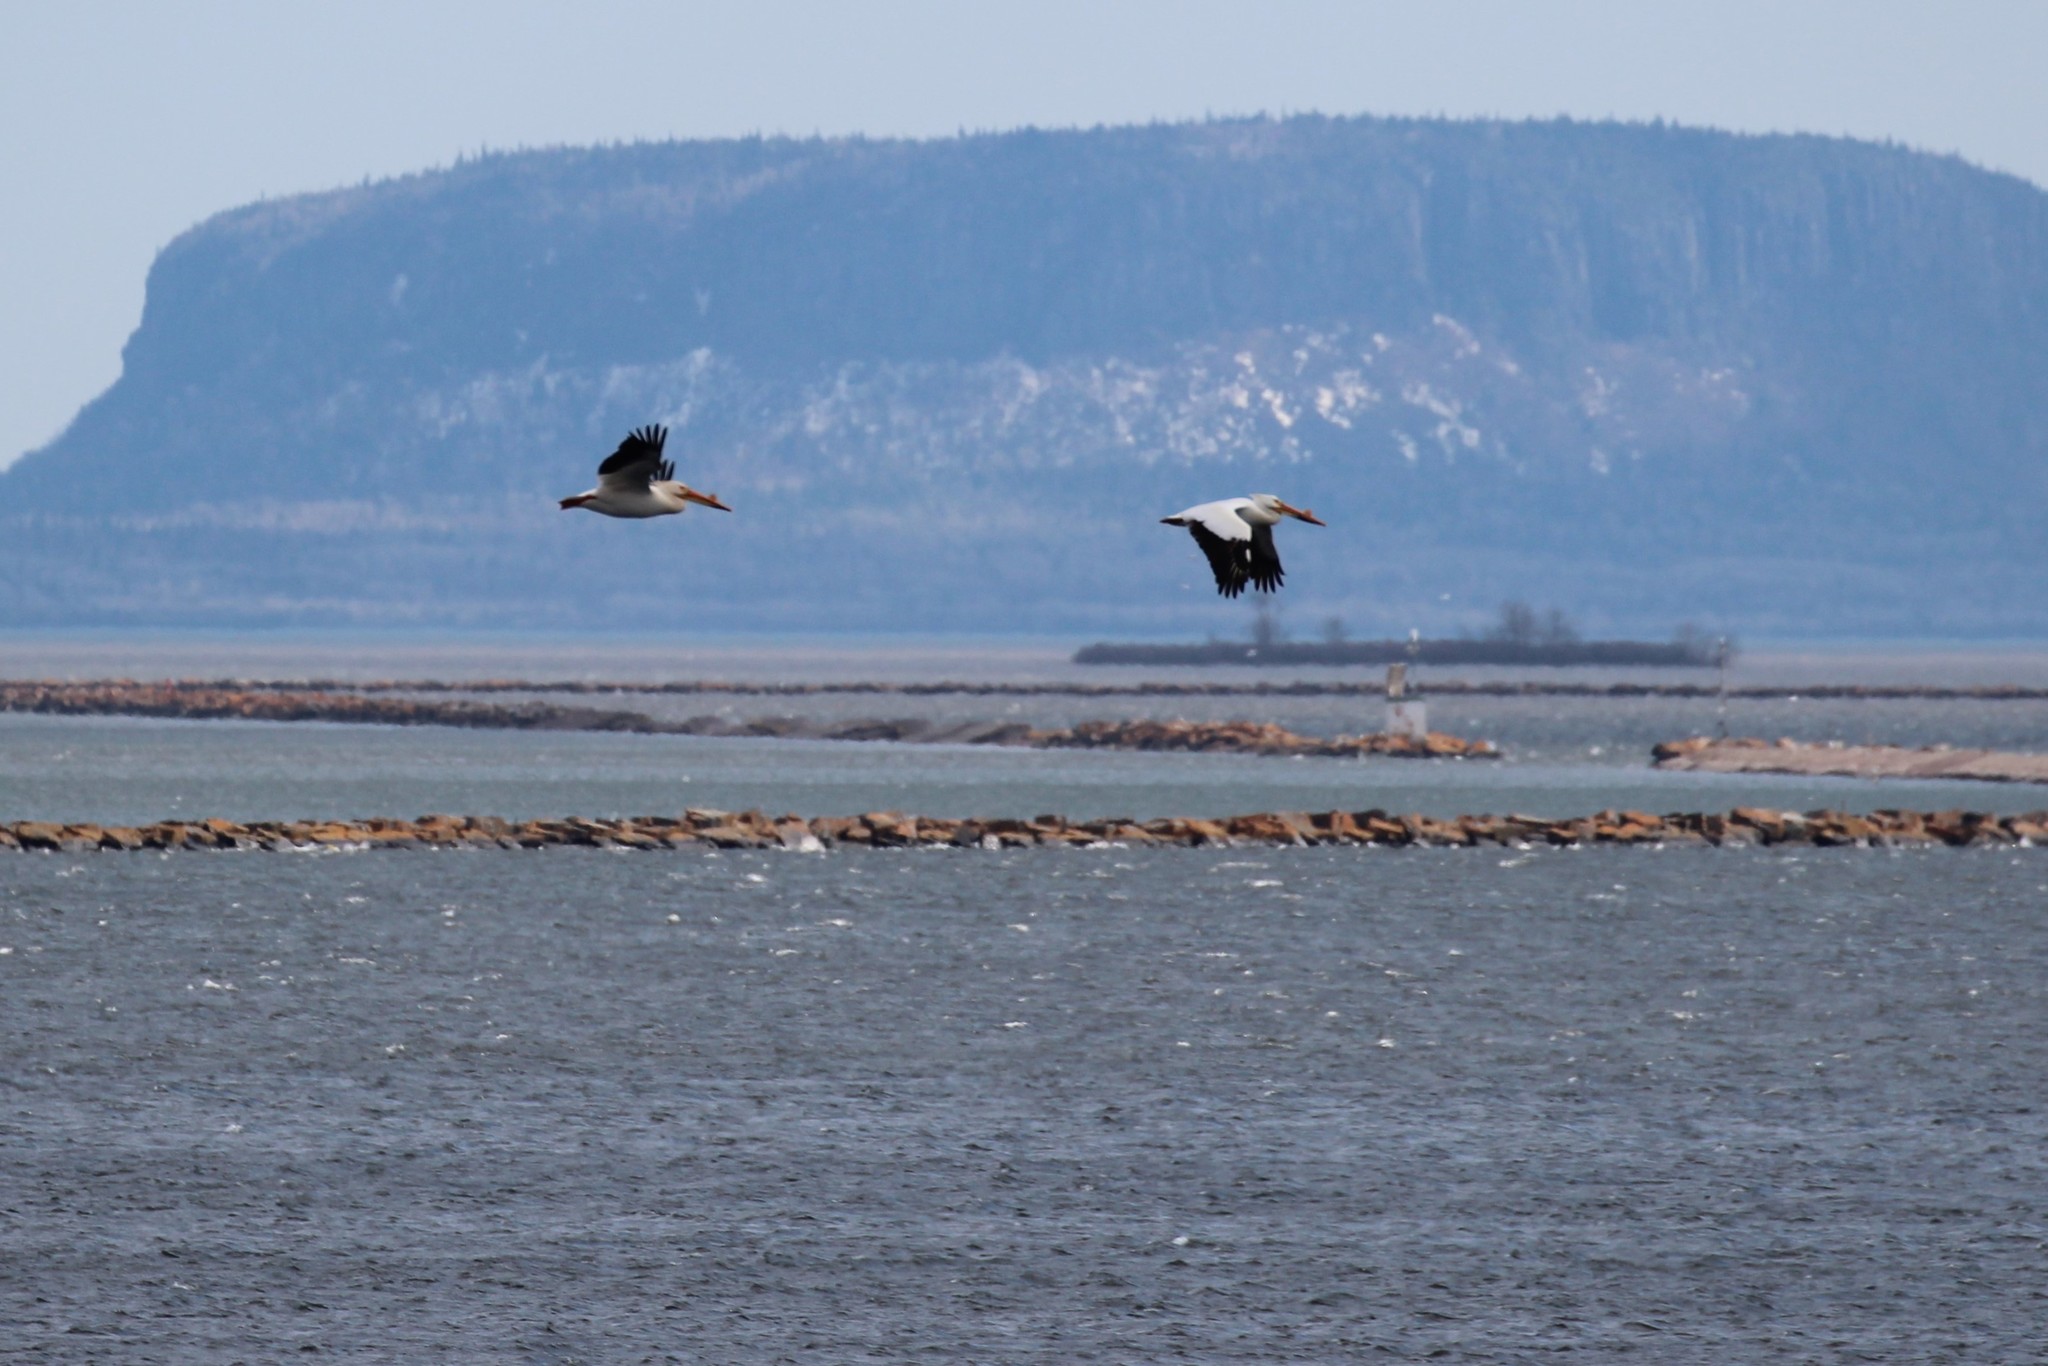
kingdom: Animalia
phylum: Chordata
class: Aves
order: Pelecaniformes
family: Pelecanidae
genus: Pelecanus
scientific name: Pelecanus erythrorhynchos
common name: American white pelican
